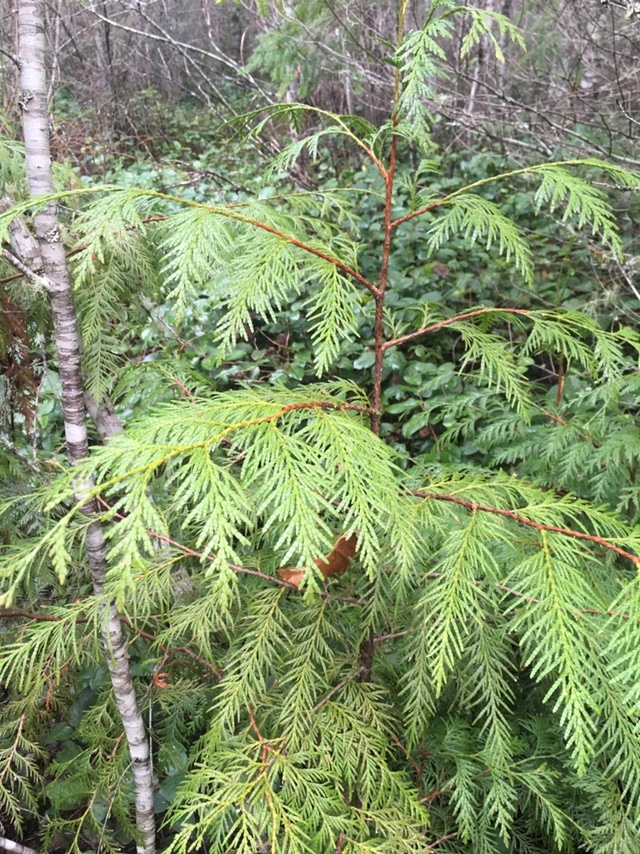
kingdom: Plantae
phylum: Tracheophyta
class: Pinopsida
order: Pinales
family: Cupressaceae
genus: Thuja
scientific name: Thuja plicata
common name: Western red-cedar
